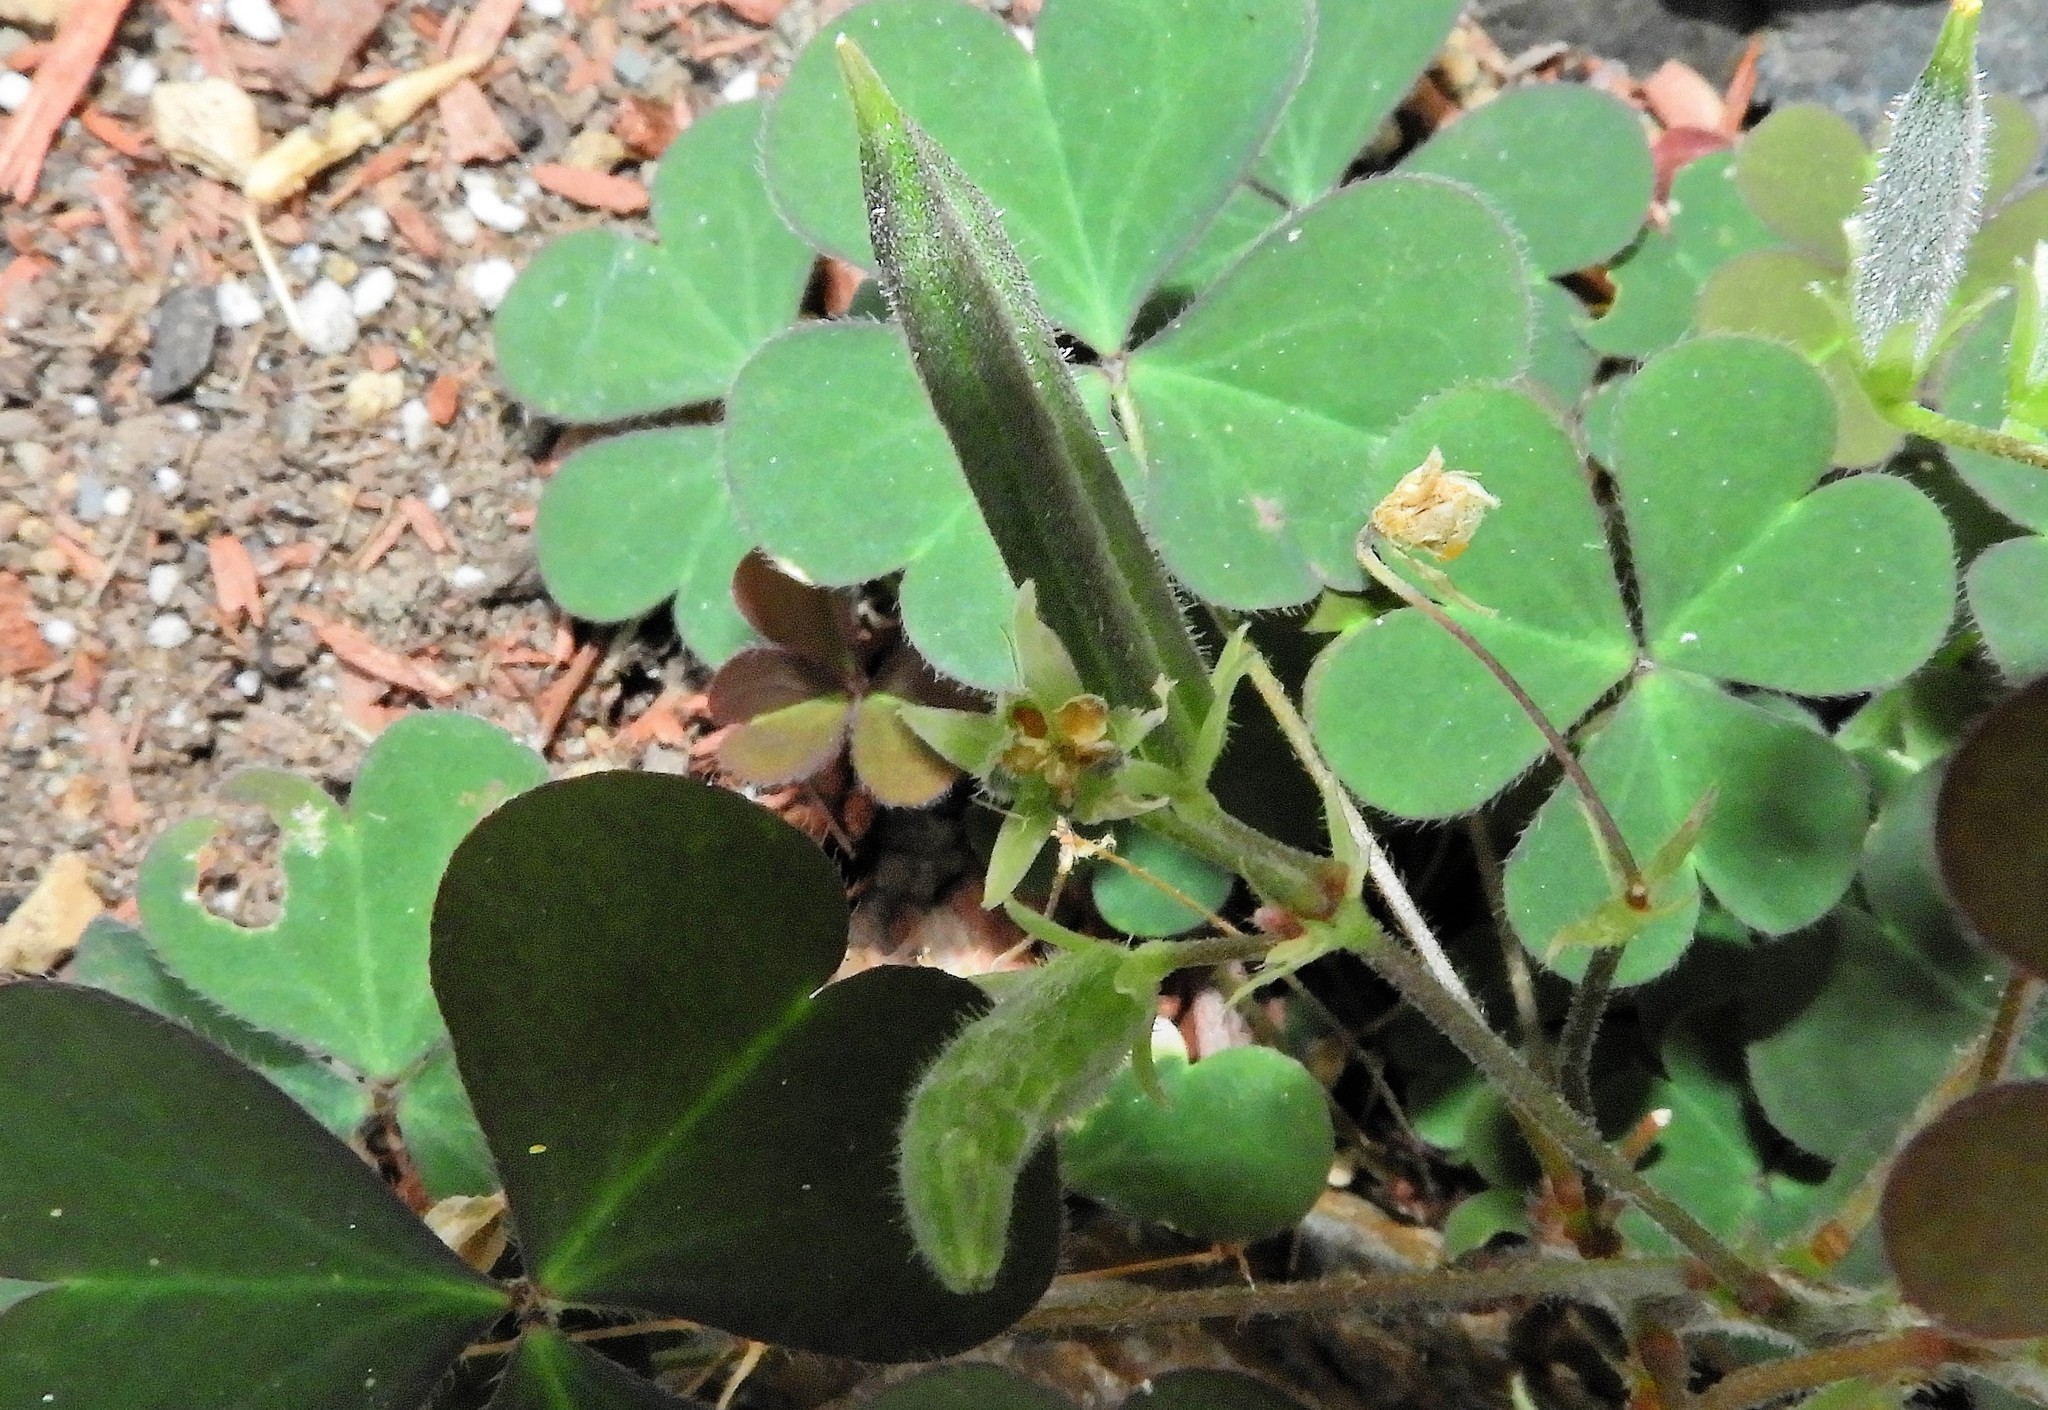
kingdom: Plantae
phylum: Tracheophyta
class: Magnoliopsida
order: Oxalidales
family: Oxalidaceae
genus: Oxalis
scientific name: Oxalis corniculata
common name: Procumbent yellow-sorrel
